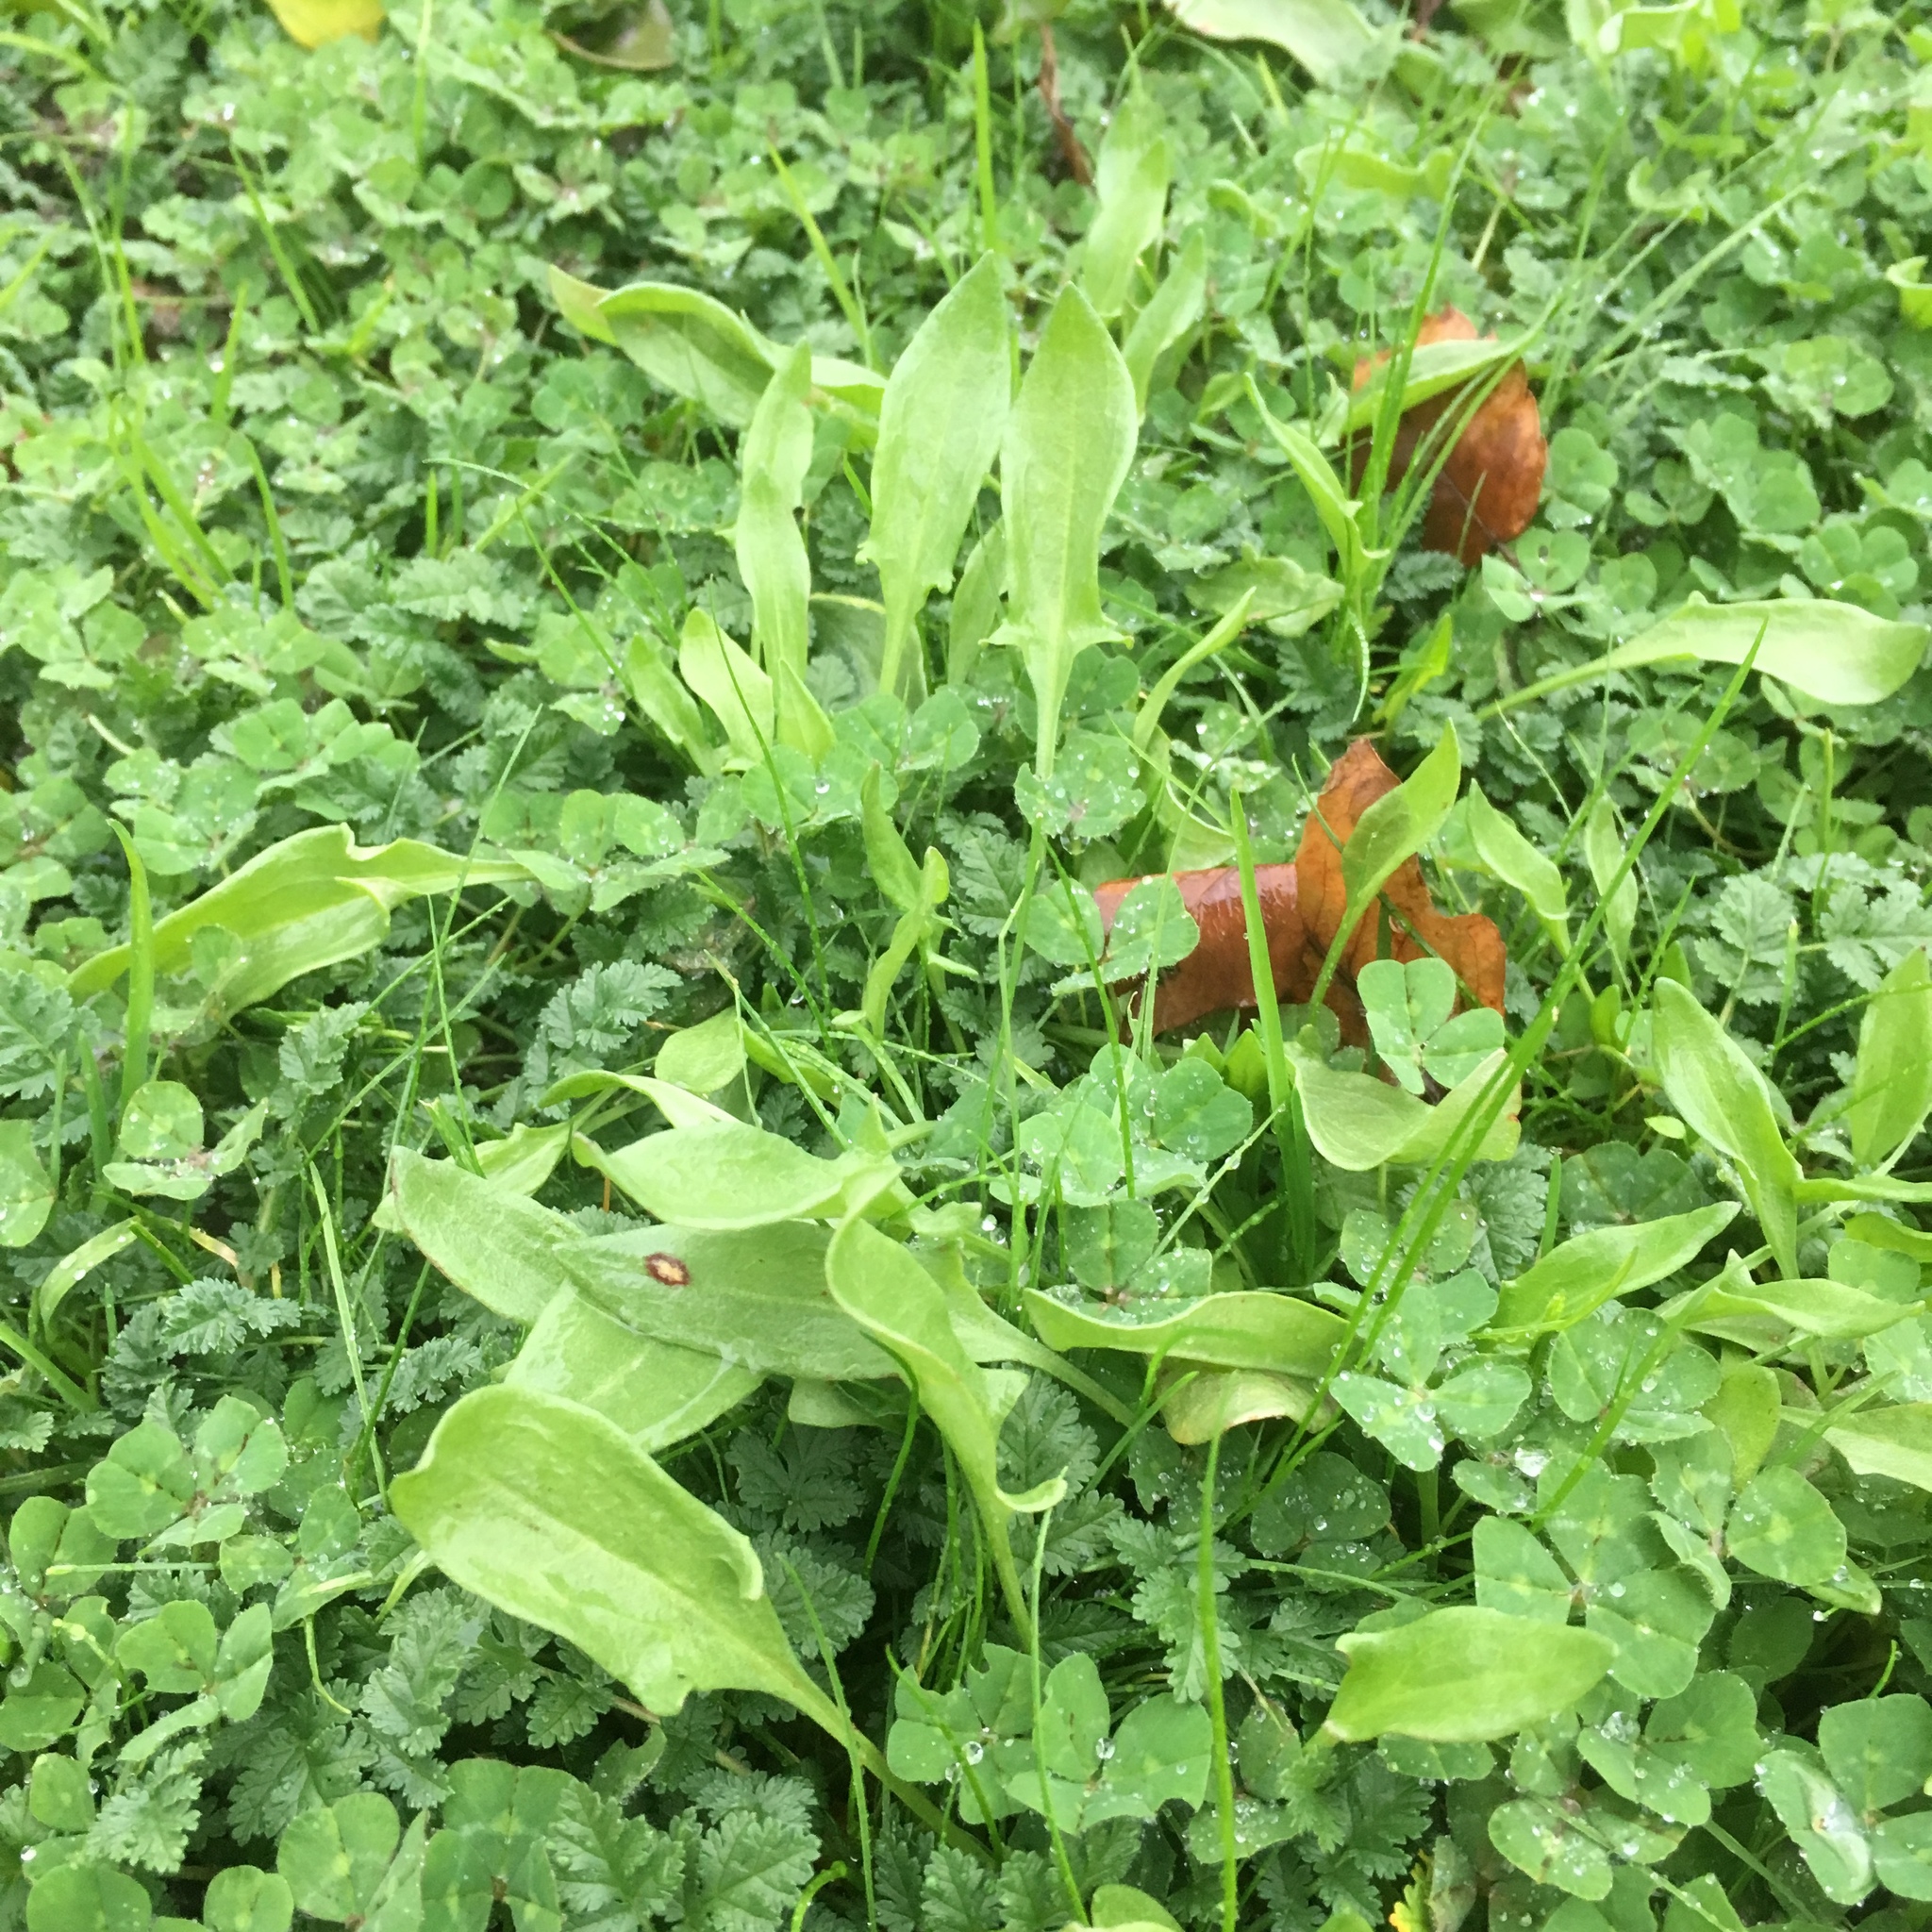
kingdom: Plantae
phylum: Tracheophyta
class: Magnoliopsida
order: Caryophyllales
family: Polygonaceae
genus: Rumex
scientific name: Rumex acetosella
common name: Common sheep sorrel
